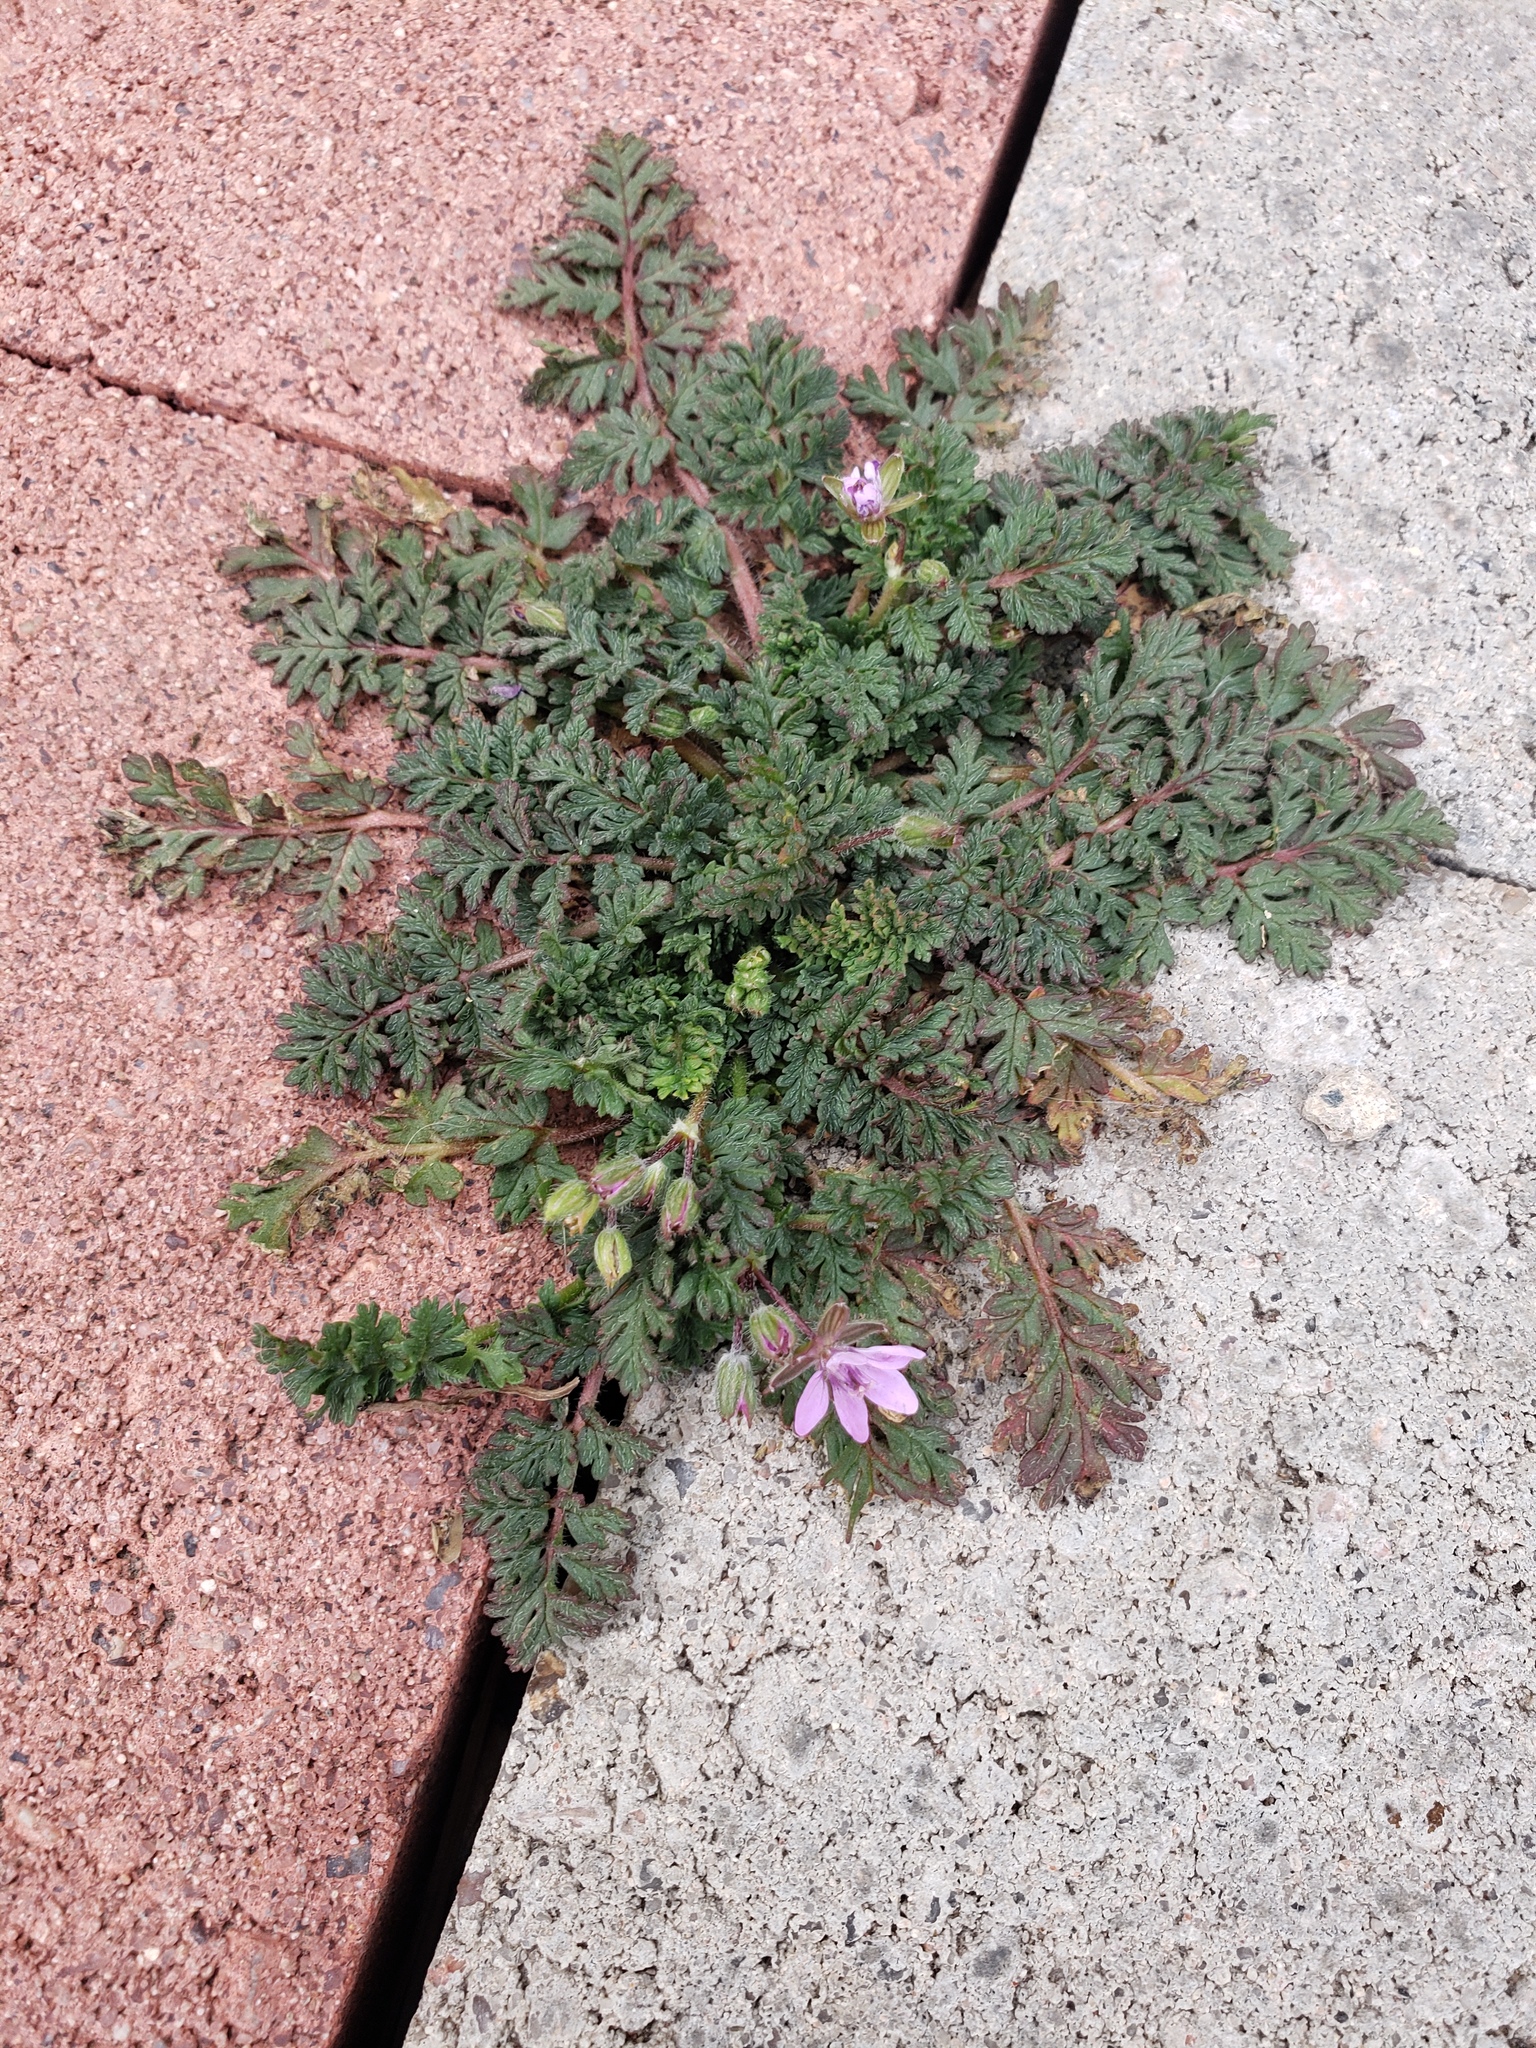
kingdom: Plantae
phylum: Tracheophyta
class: Magnoliopsida
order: Geraniales
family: Geraniaceae
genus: Erodium
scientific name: Erodium cicutarium
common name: Common stork's-bill
